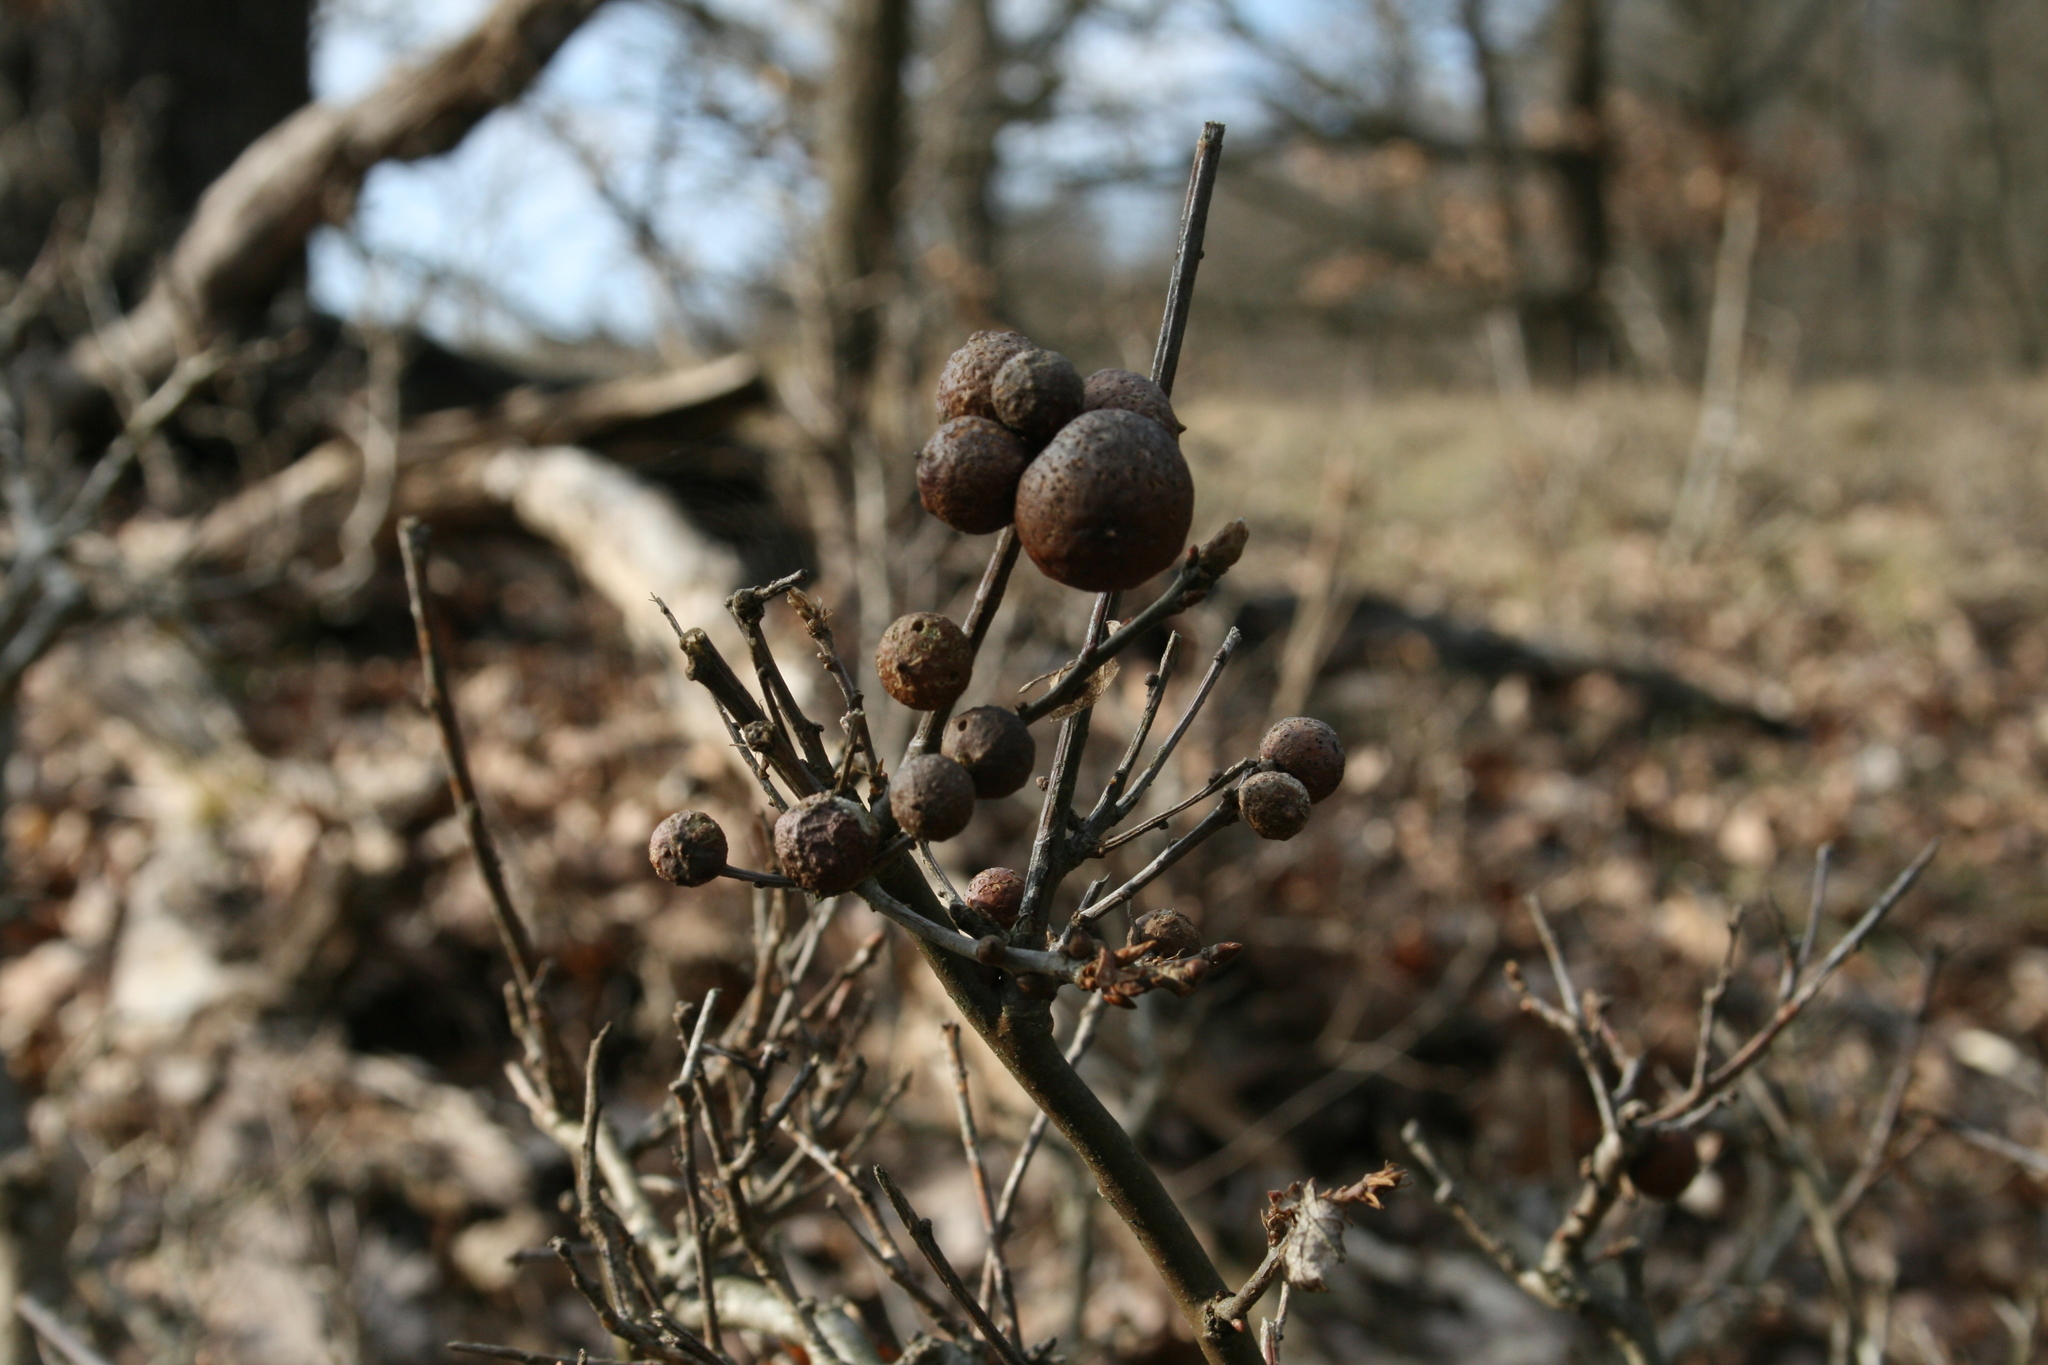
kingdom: Animalia
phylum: Arthropoda
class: Insecta
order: Hymenoptera
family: Cynipidae
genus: Andricus
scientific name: Andricus kollari
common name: Marble gall
